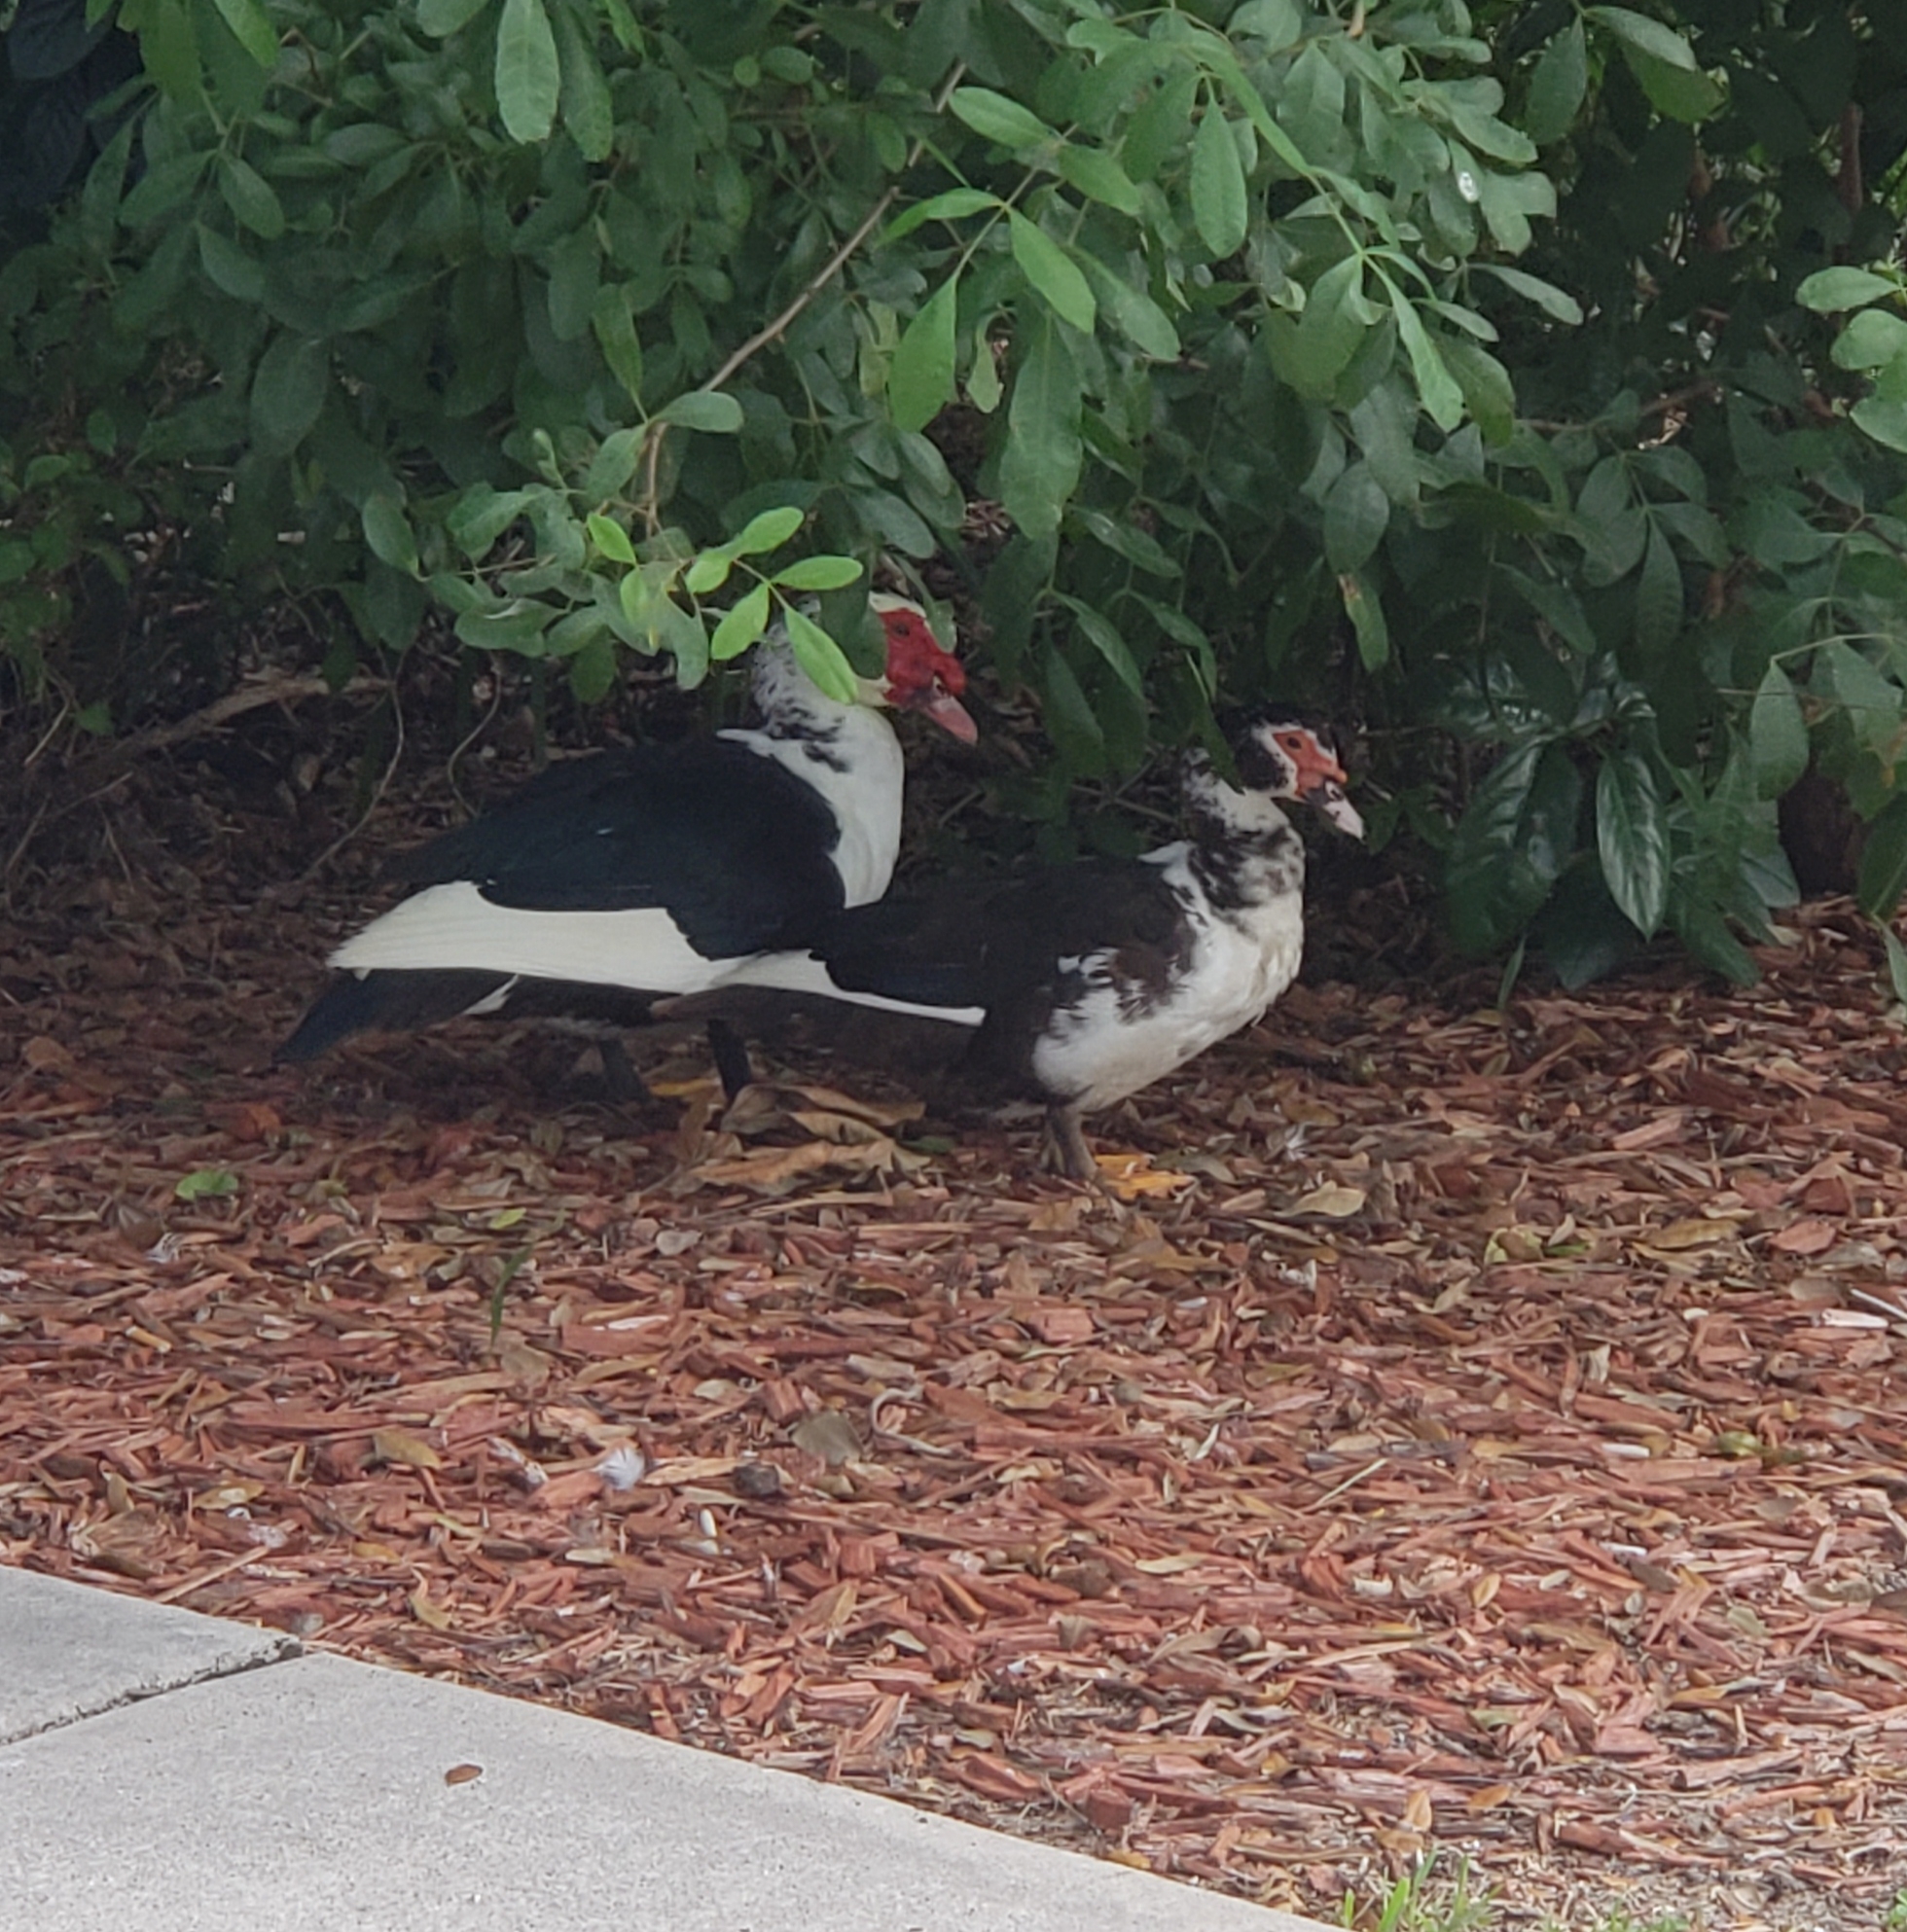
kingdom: Animalia
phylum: Chordata
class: Aves
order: Anseriformes
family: Anatidae
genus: Cairina
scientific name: Cairina moschata
